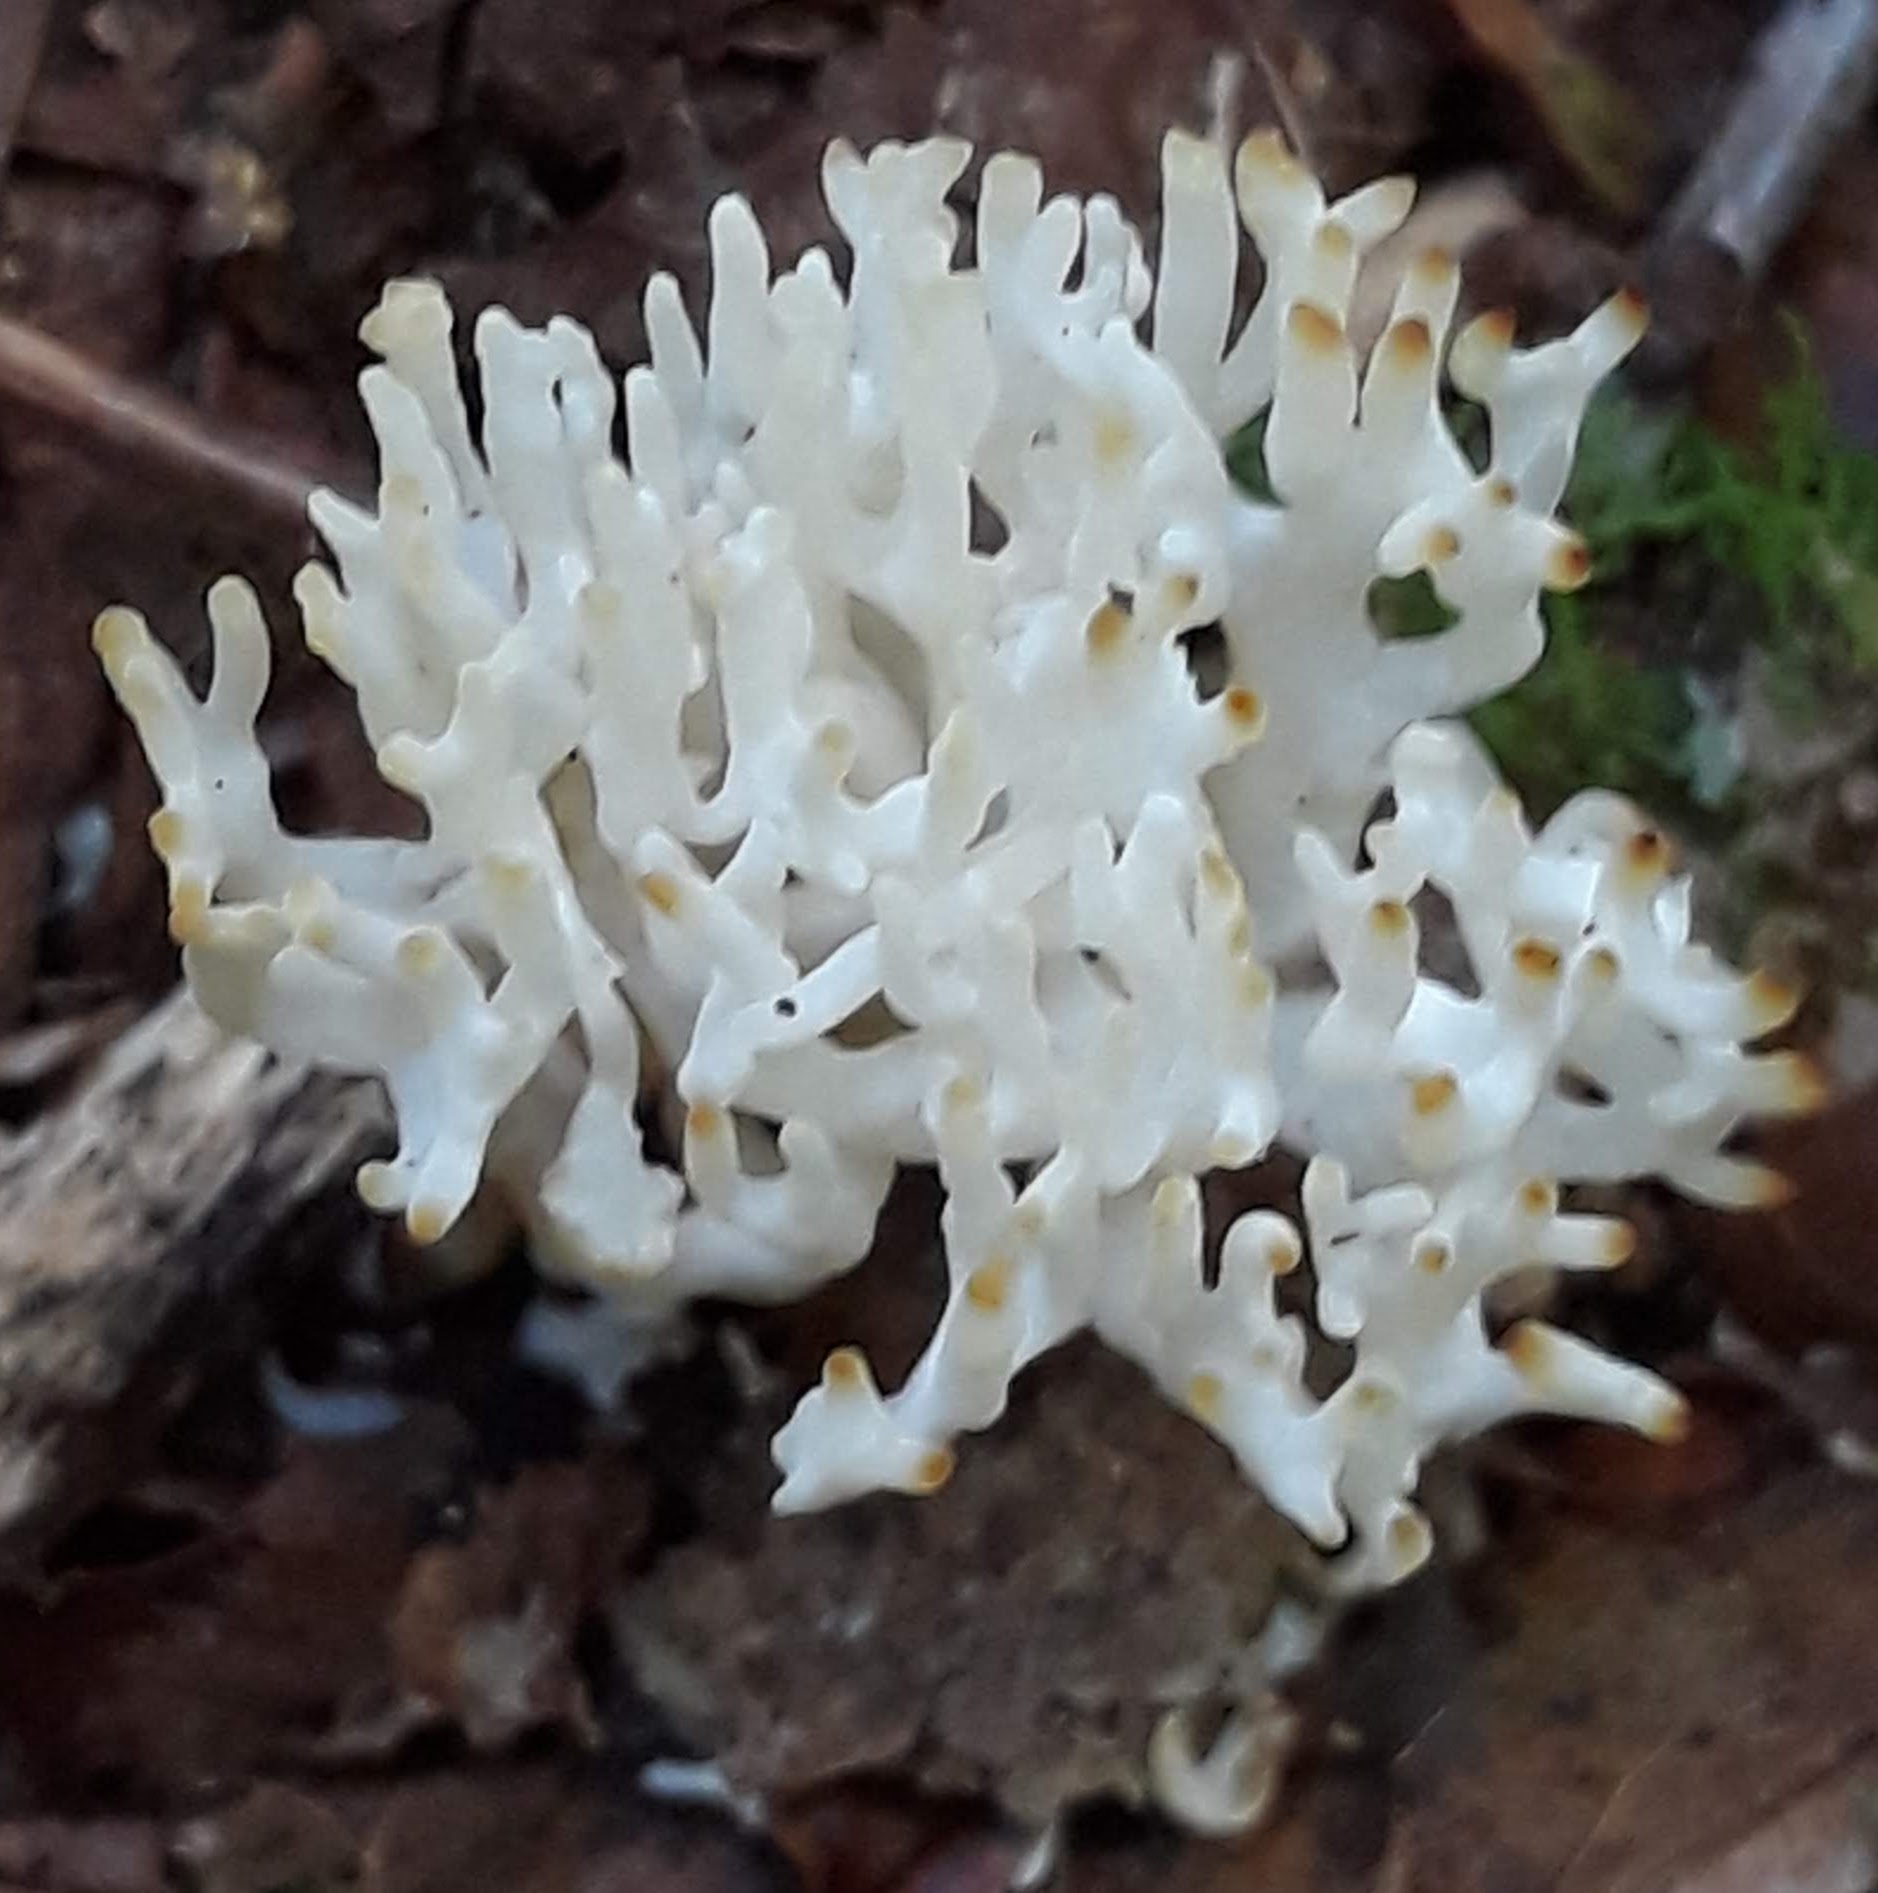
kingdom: Fungi
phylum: Basidiomycota
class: Agaricomycetes
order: Agaricales
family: Clavariaceae
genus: Ramariopsis
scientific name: Ramariopsis kunzei
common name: Ivory coral
